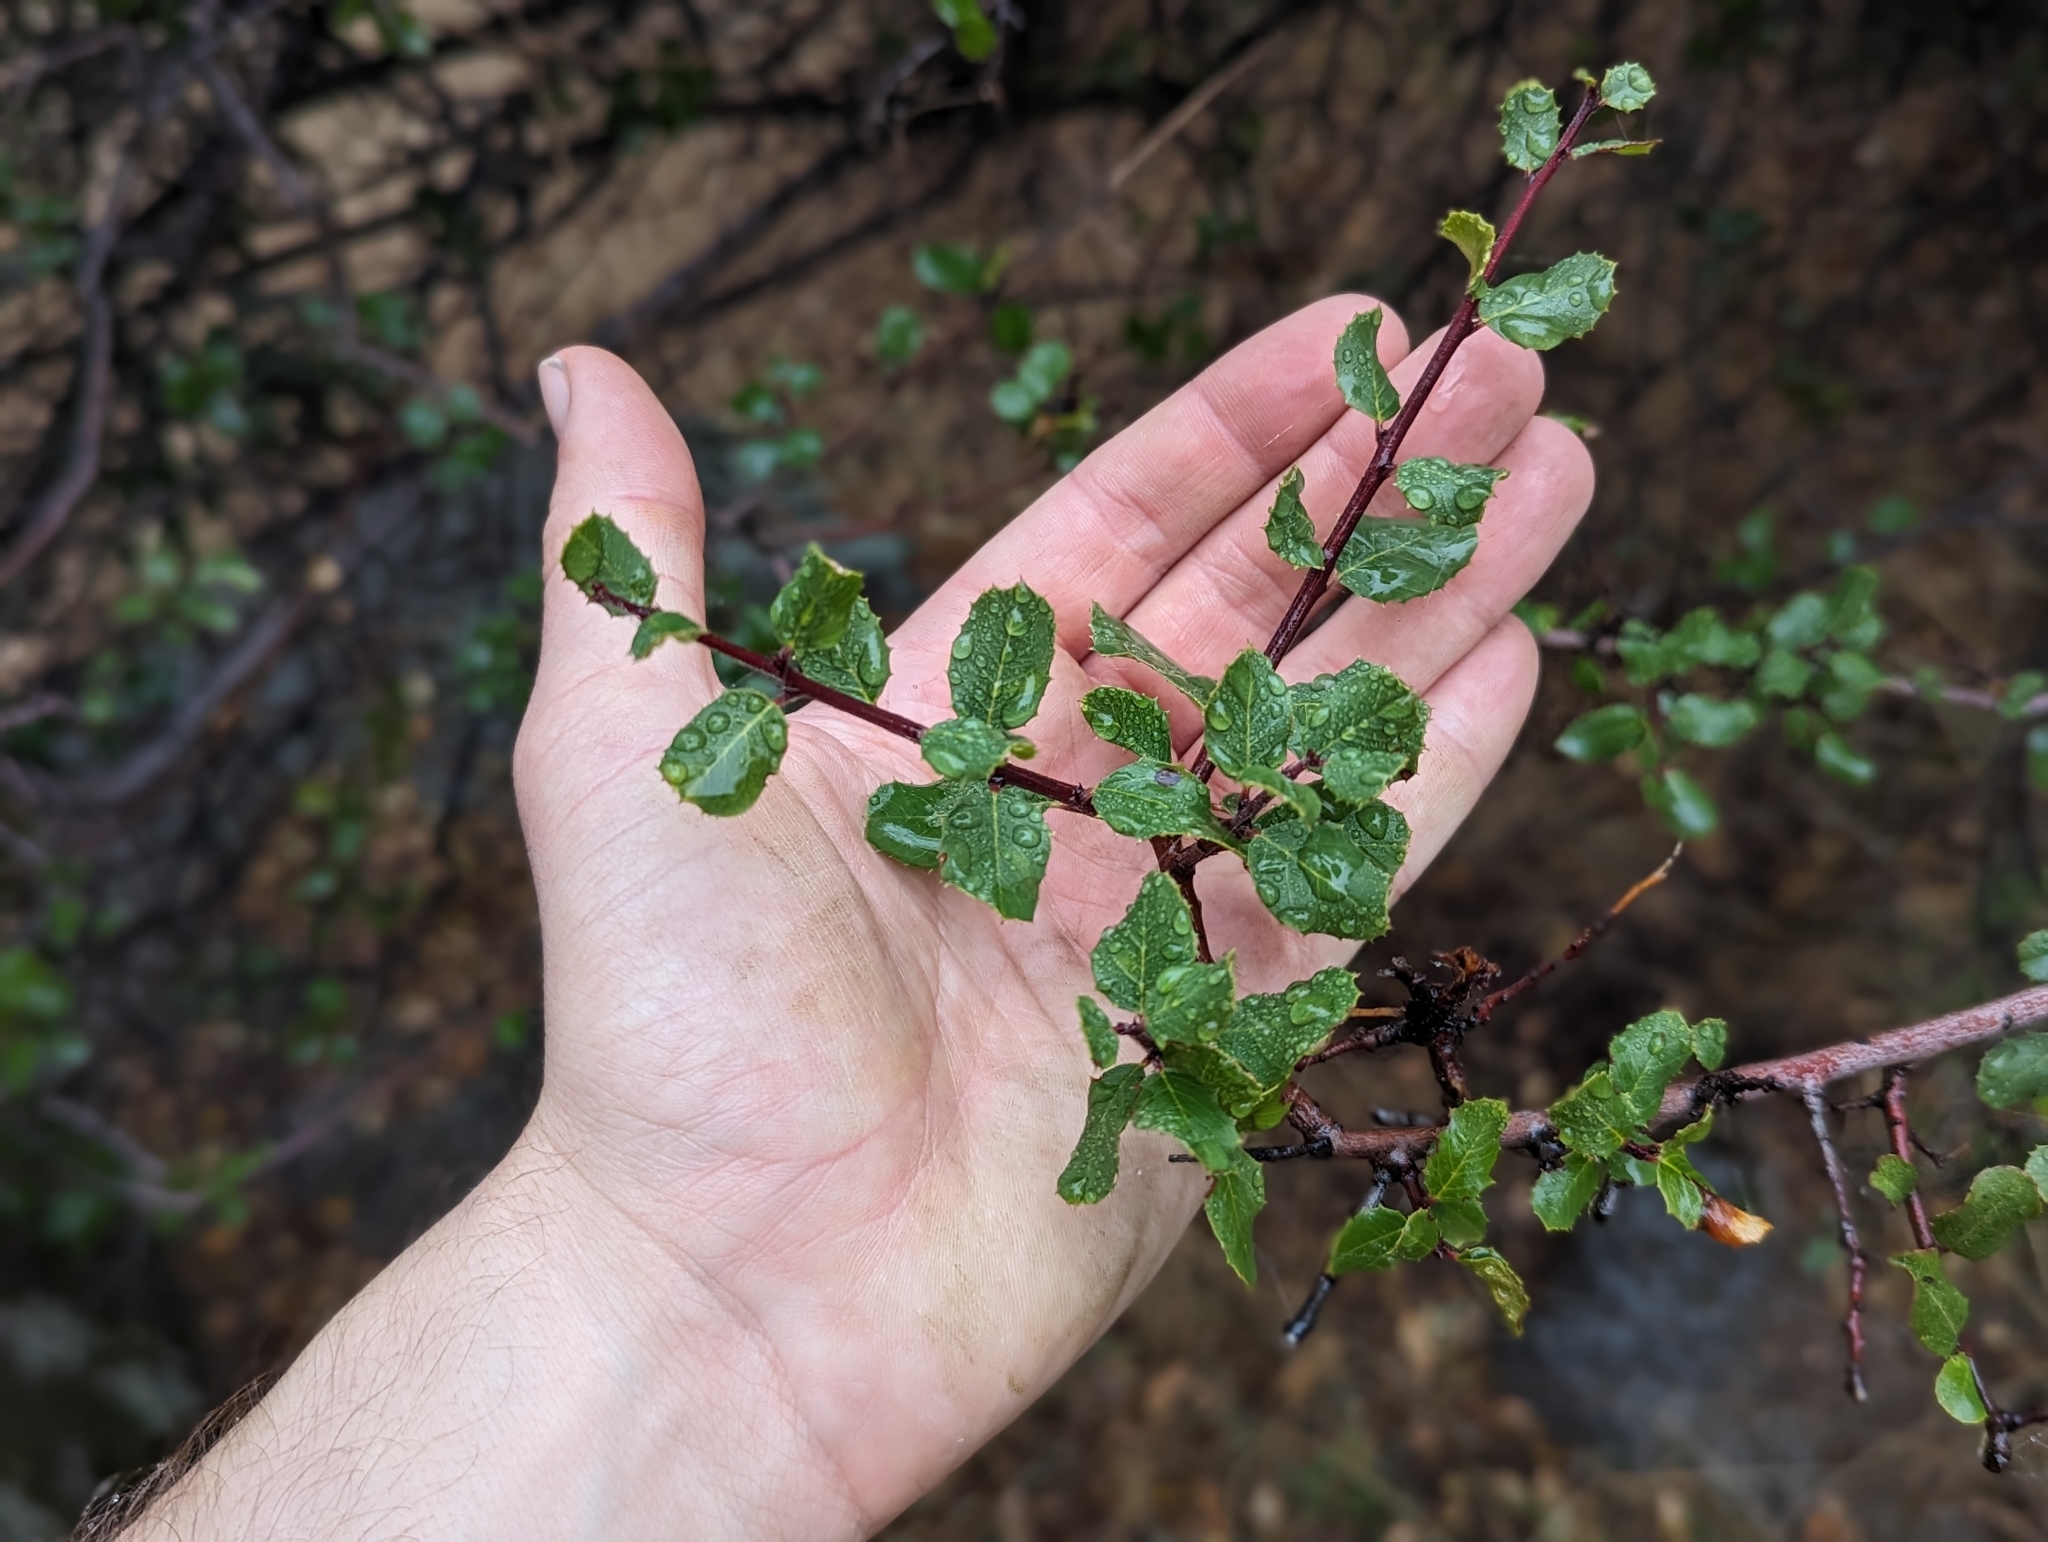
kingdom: Plantae
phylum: Tracheophyta
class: Magnoliopsida
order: Rosales
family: Rhamnaceae
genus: Endotropis
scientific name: Endotropis crocea
